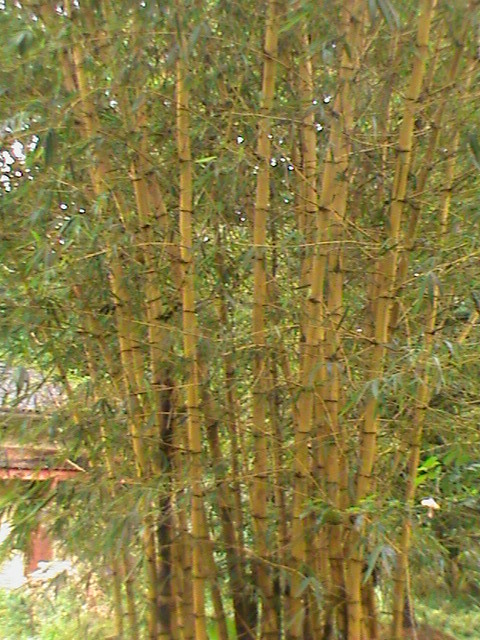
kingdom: Plantae
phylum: Tracheophyta
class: Liliopsida
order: Poales
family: Poaceae
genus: Bambusa
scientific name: Bambusa vulgaris
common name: Common bamboo
